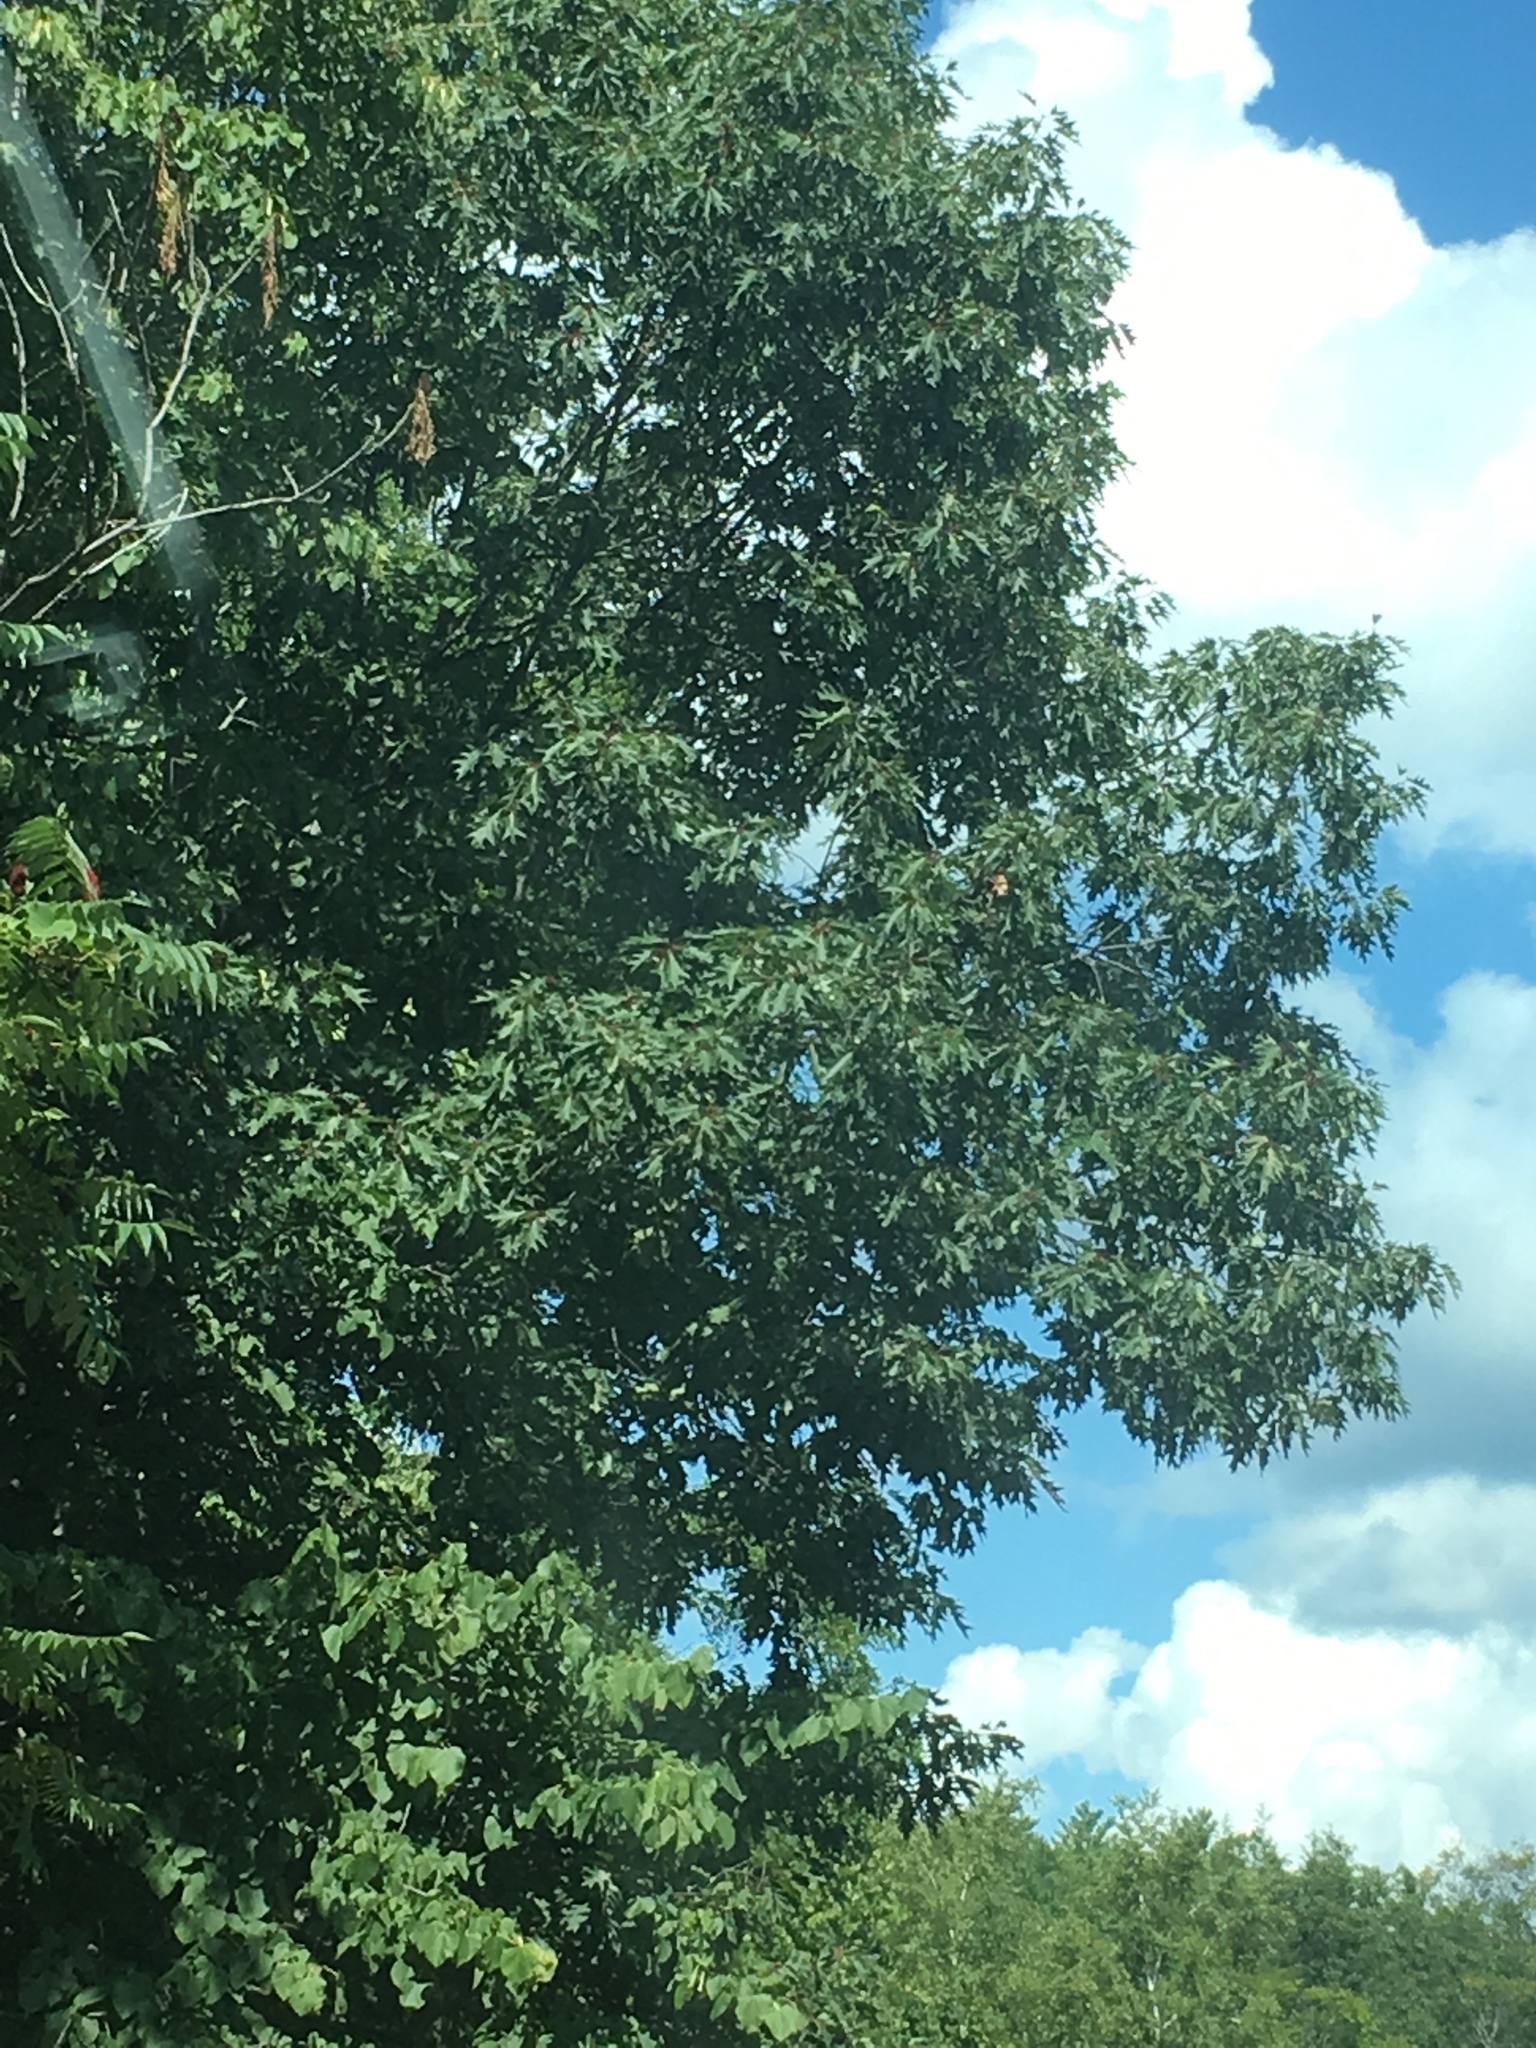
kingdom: Plantae
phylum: Tracheophyta
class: Magnoliopsida
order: Fagales
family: Fagaceae
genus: Quercus
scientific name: Quercus rubra
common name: Red oak
